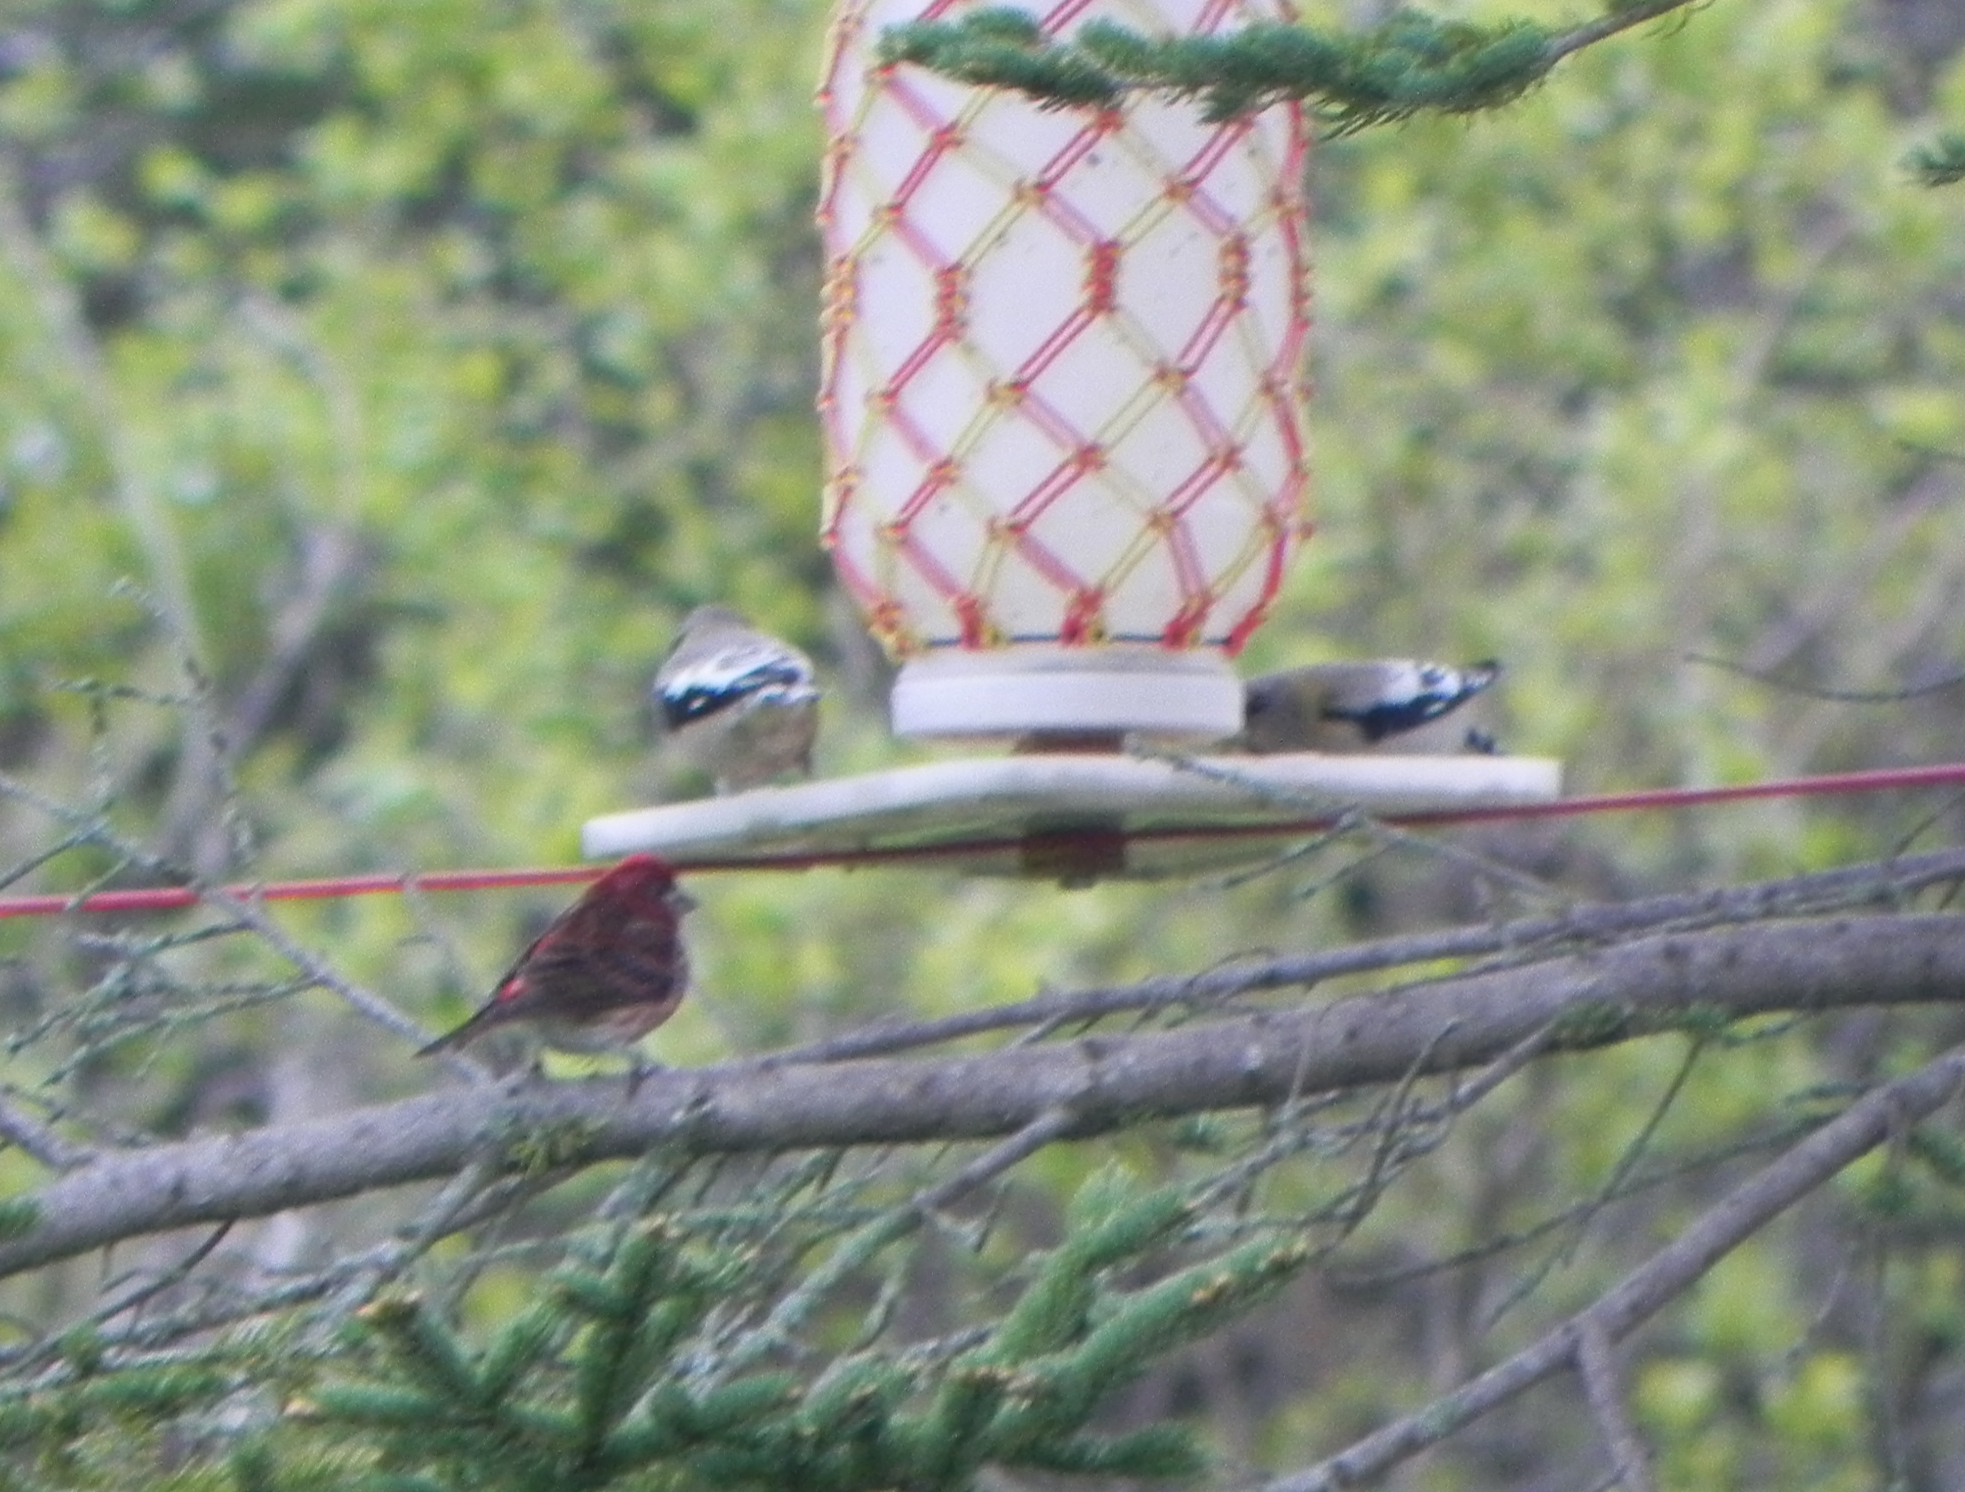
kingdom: Animalia
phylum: Chordata
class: Aves
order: Passeriformes
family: Fringillidae
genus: Haemorhous
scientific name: Haemorhous purpureus
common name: Purple finch
